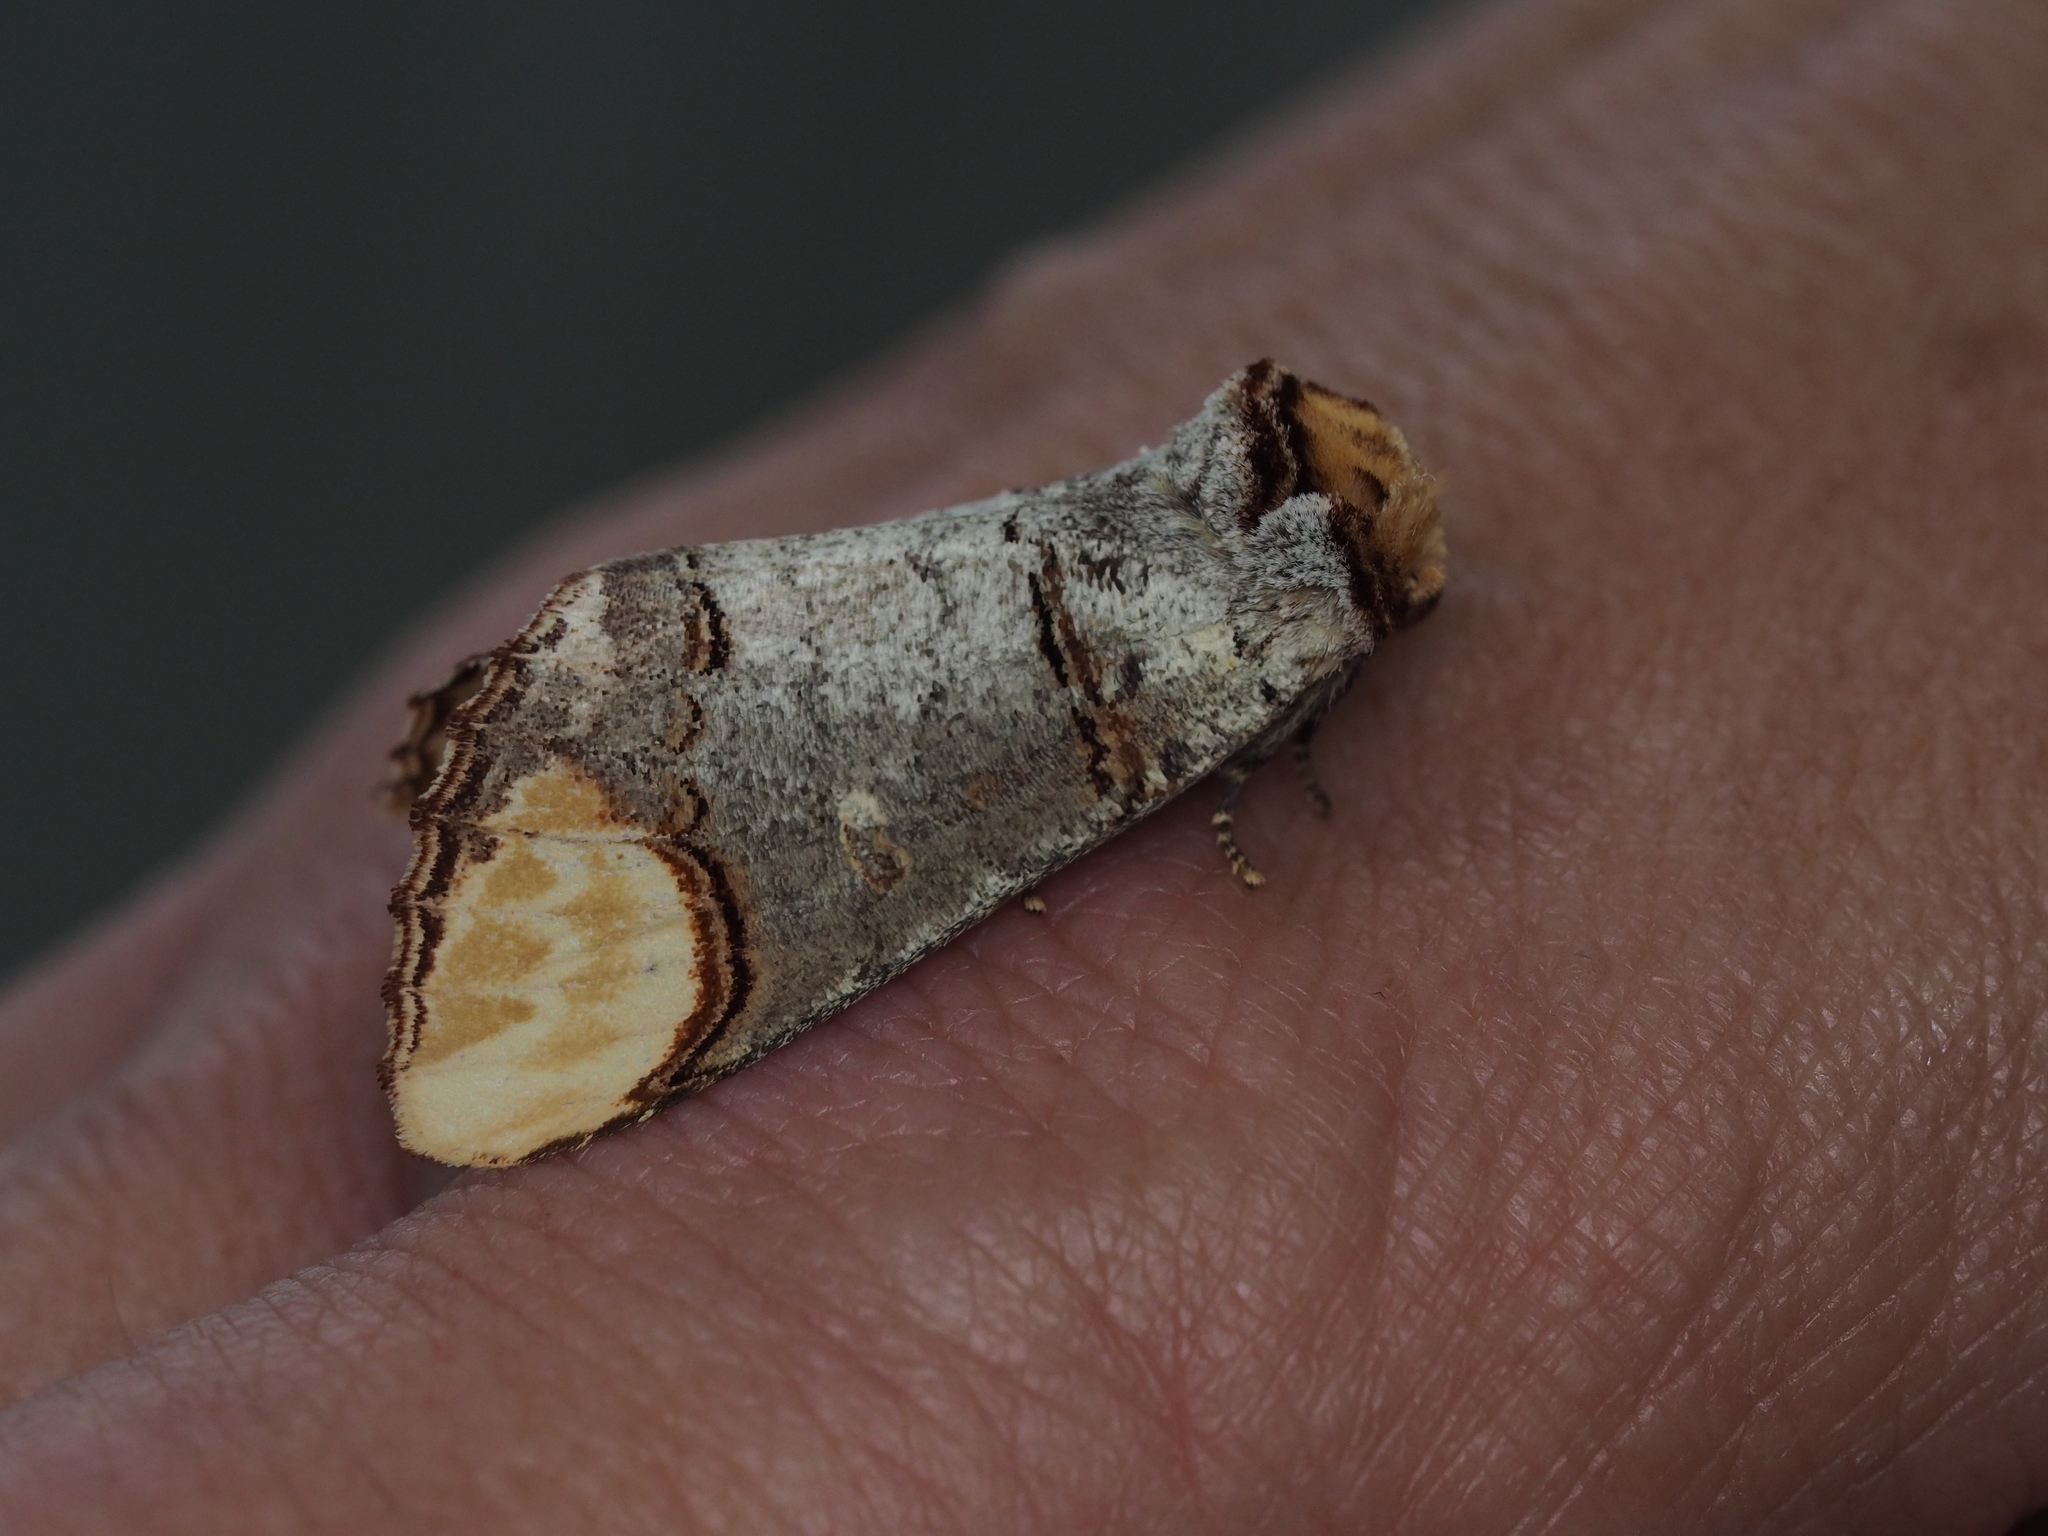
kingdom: Animalia
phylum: Arthropoda
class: Insecta
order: Lepidoptera
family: Notodontidae
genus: Phalera
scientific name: Phalera bucephala
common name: Buff-tip
